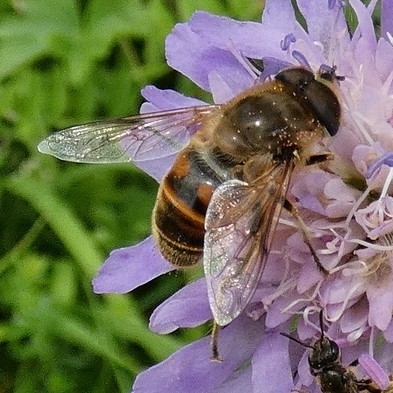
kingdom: Animalia
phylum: Arthropoda
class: Insecta
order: Diptera
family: Syrphidae
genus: Eristalis
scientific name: Eristalis tenax
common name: Drone fly
